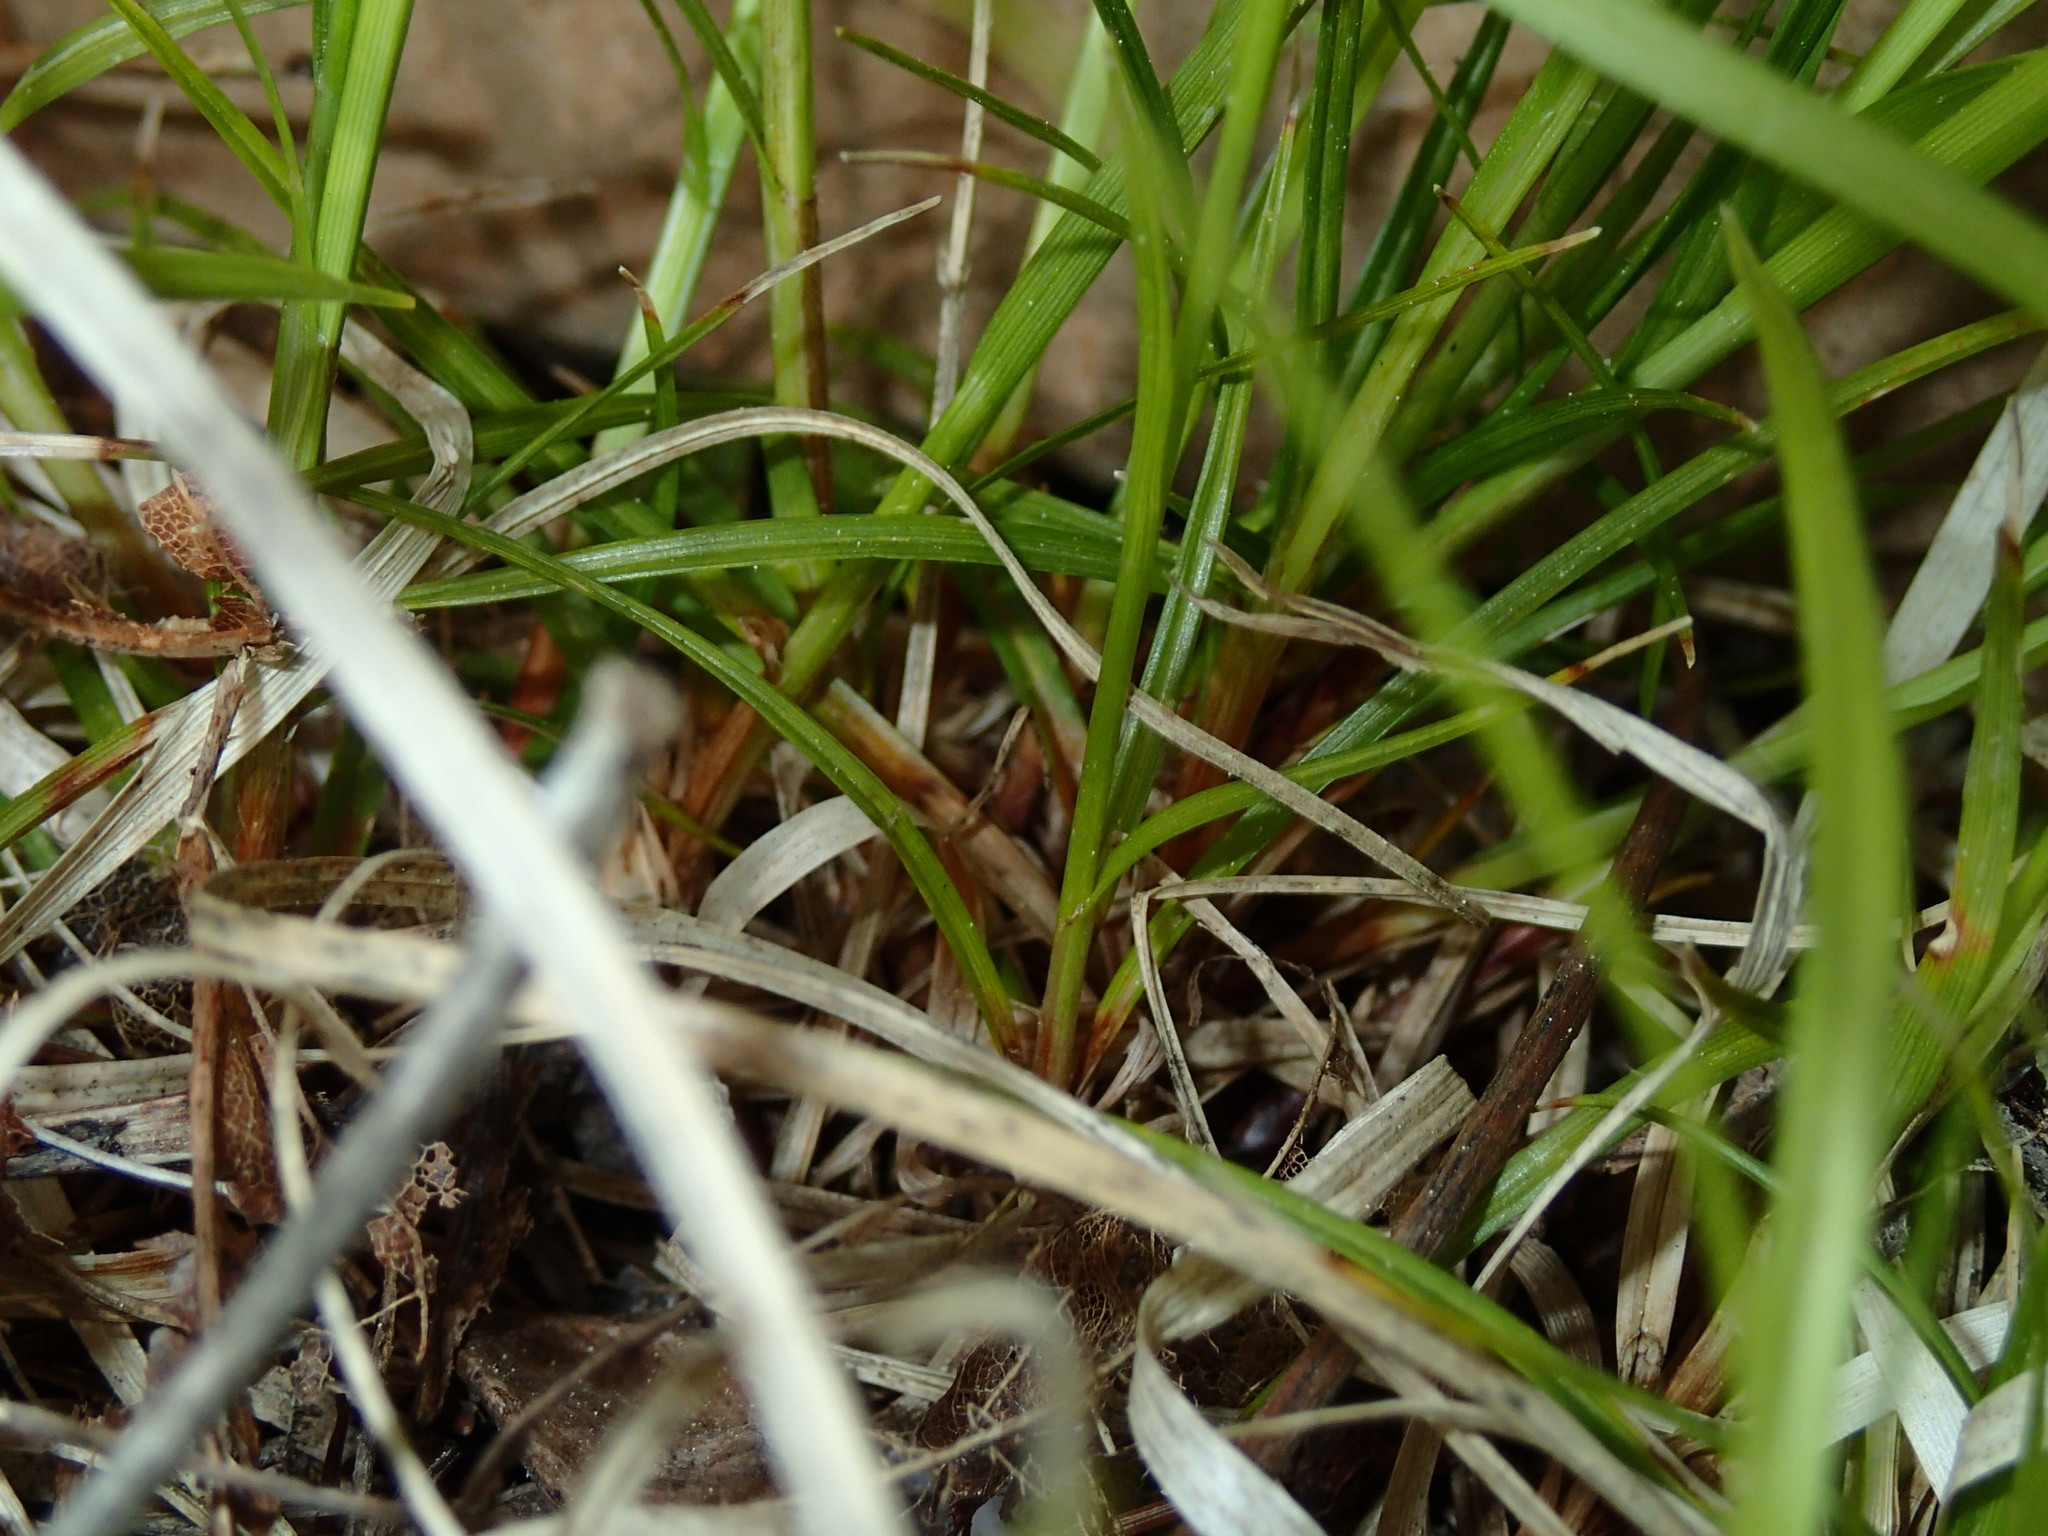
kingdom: Plantae
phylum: Tracheophyta
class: Liliopsida
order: Poales
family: Cyperaceae
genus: Carex
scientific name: Carex peckii
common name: Peck's oak sedge
